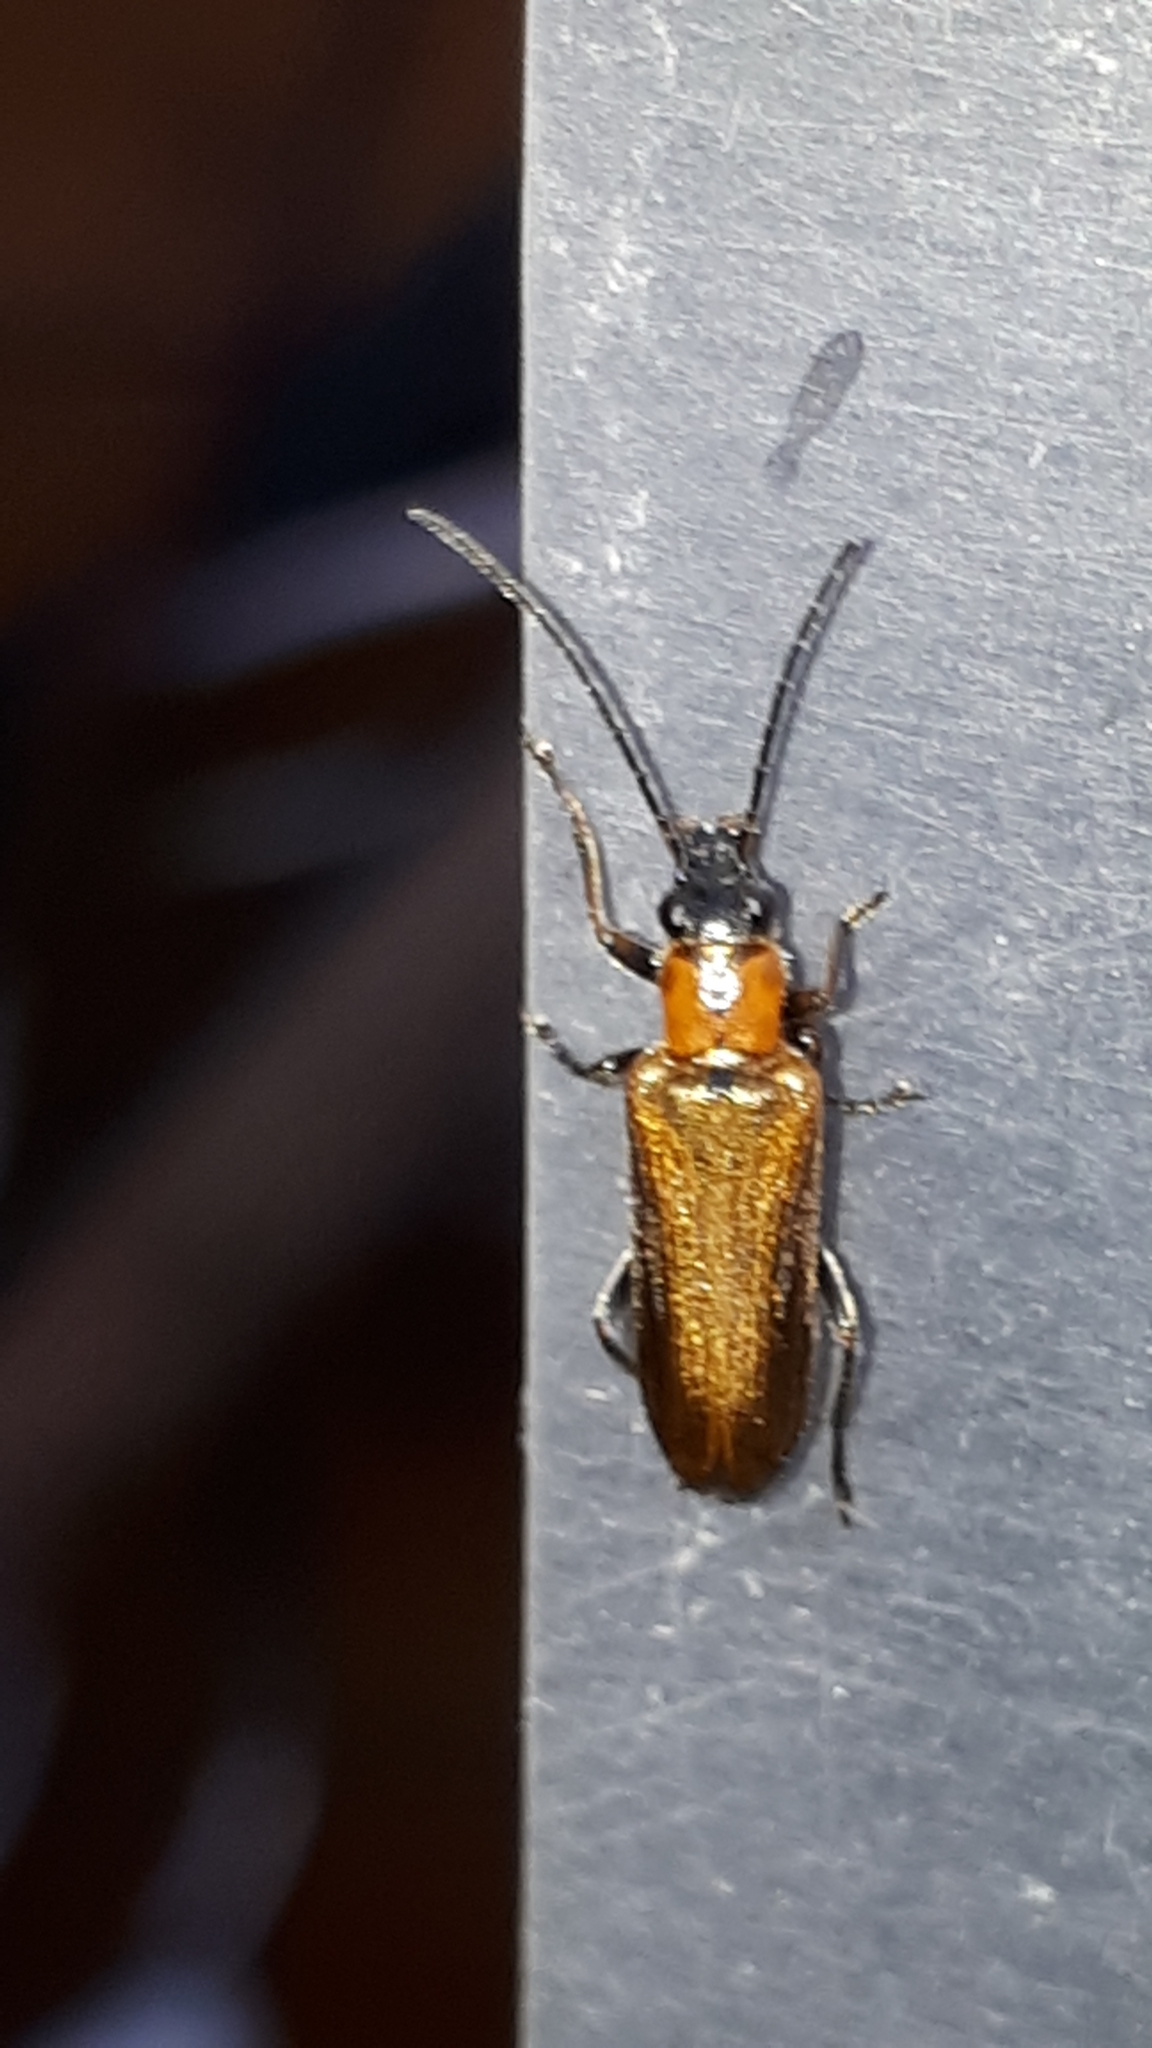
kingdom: Animalia
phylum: Arthropoda
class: Insecta
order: Coleoptera
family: Oedemeridae
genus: Anogcodes
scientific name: Anogcodes rufiventris
